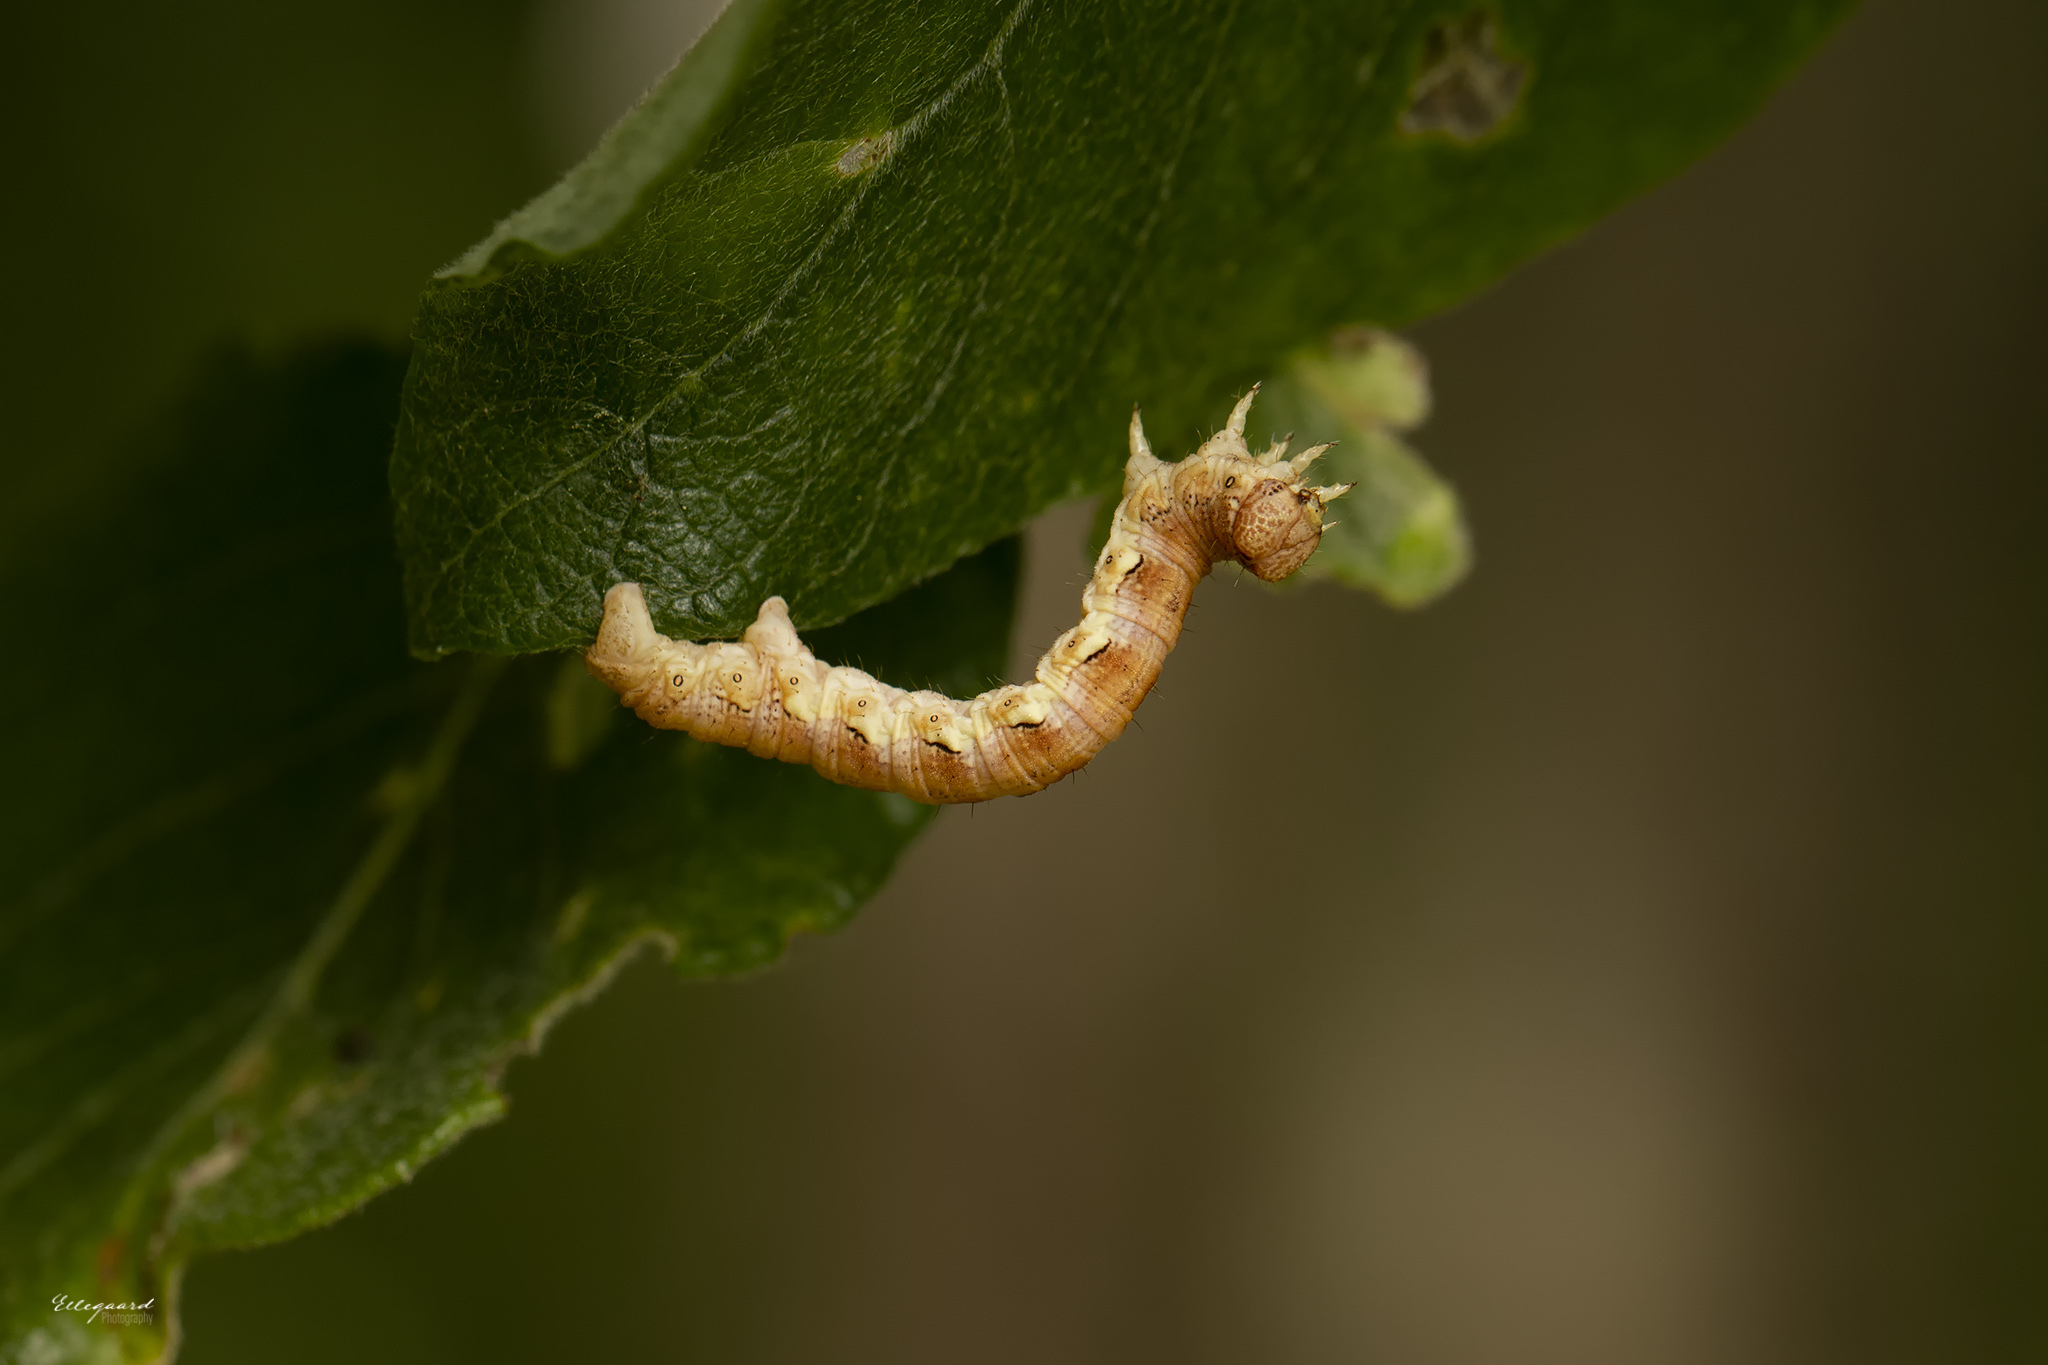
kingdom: Animalia
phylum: Arthropoda
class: Insecta
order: Lepidoptera
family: Geometridae
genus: Erannis
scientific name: Erannis defoliaria
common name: Mottled umber
